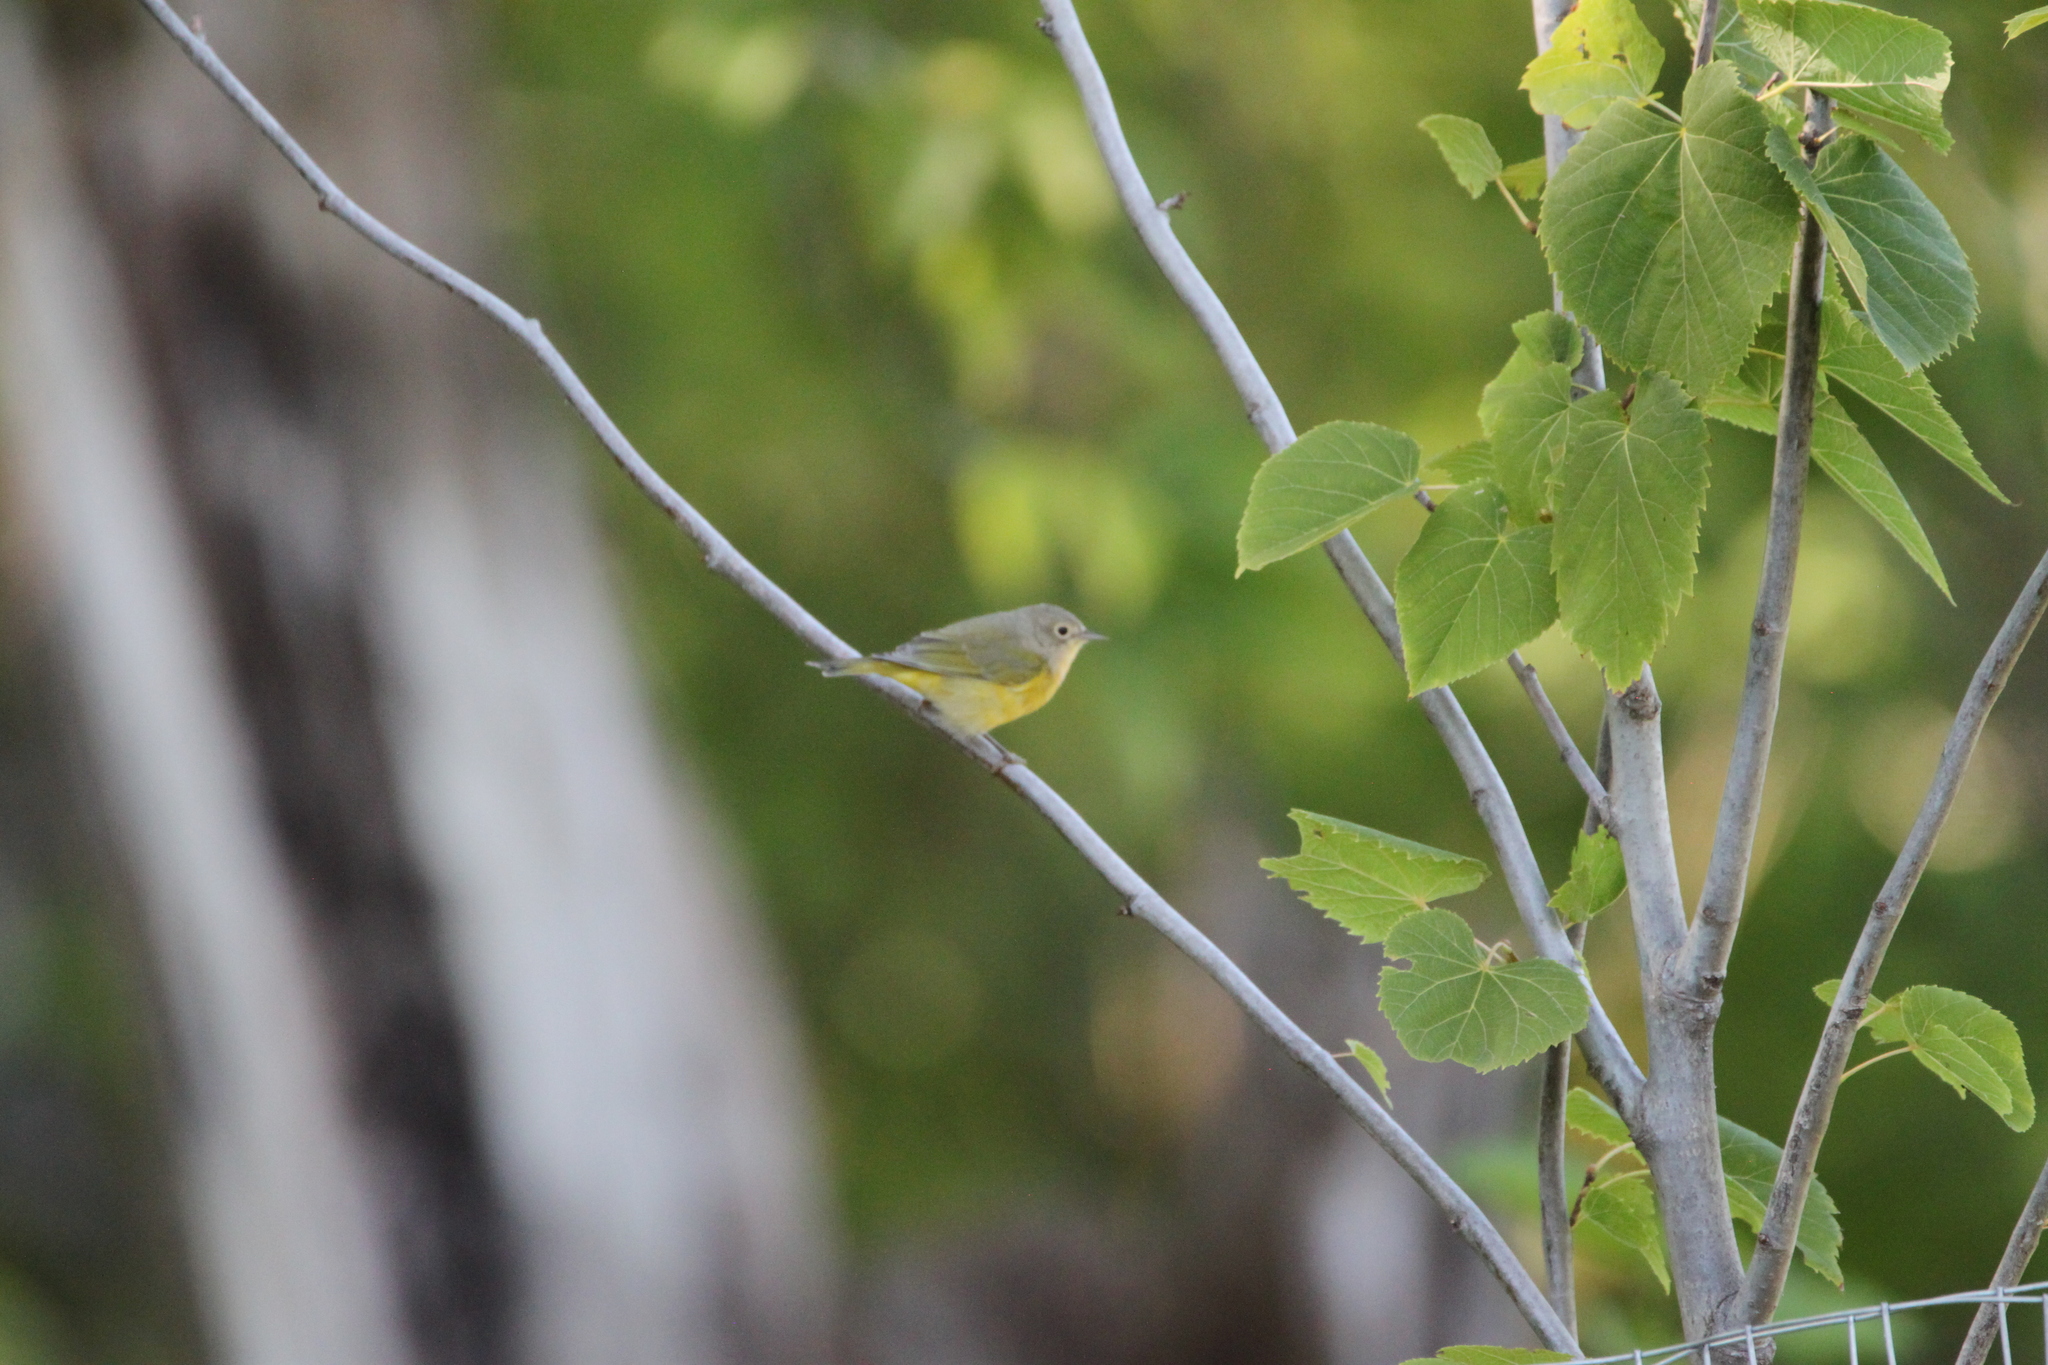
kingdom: Animalia
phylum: Chordata
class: Aves
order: Passeriformes
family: Parulidae
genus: Leiothlypis
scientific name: Leiothlypis ruficapilla
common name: Nashville warbler
